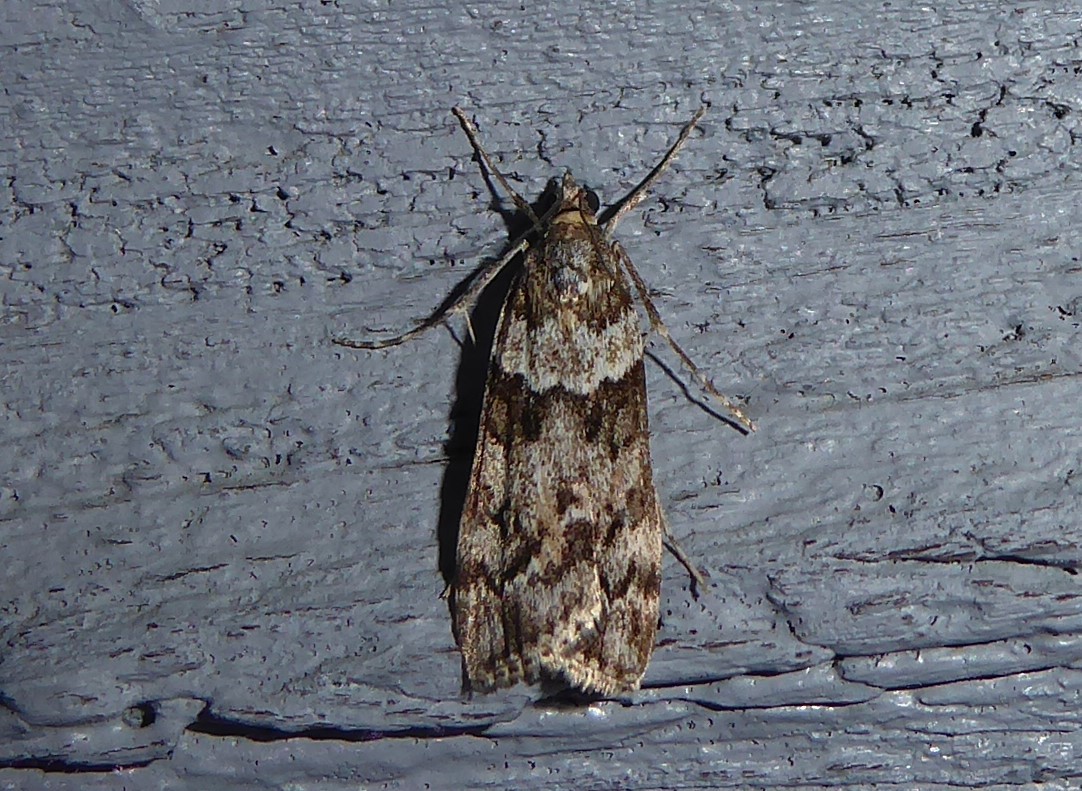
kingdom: Animalia
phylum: Arthropoda
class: Insecta
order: Lepidoptera
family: Crambidae
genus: Eudonia
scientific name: Eudonia submarginalis
